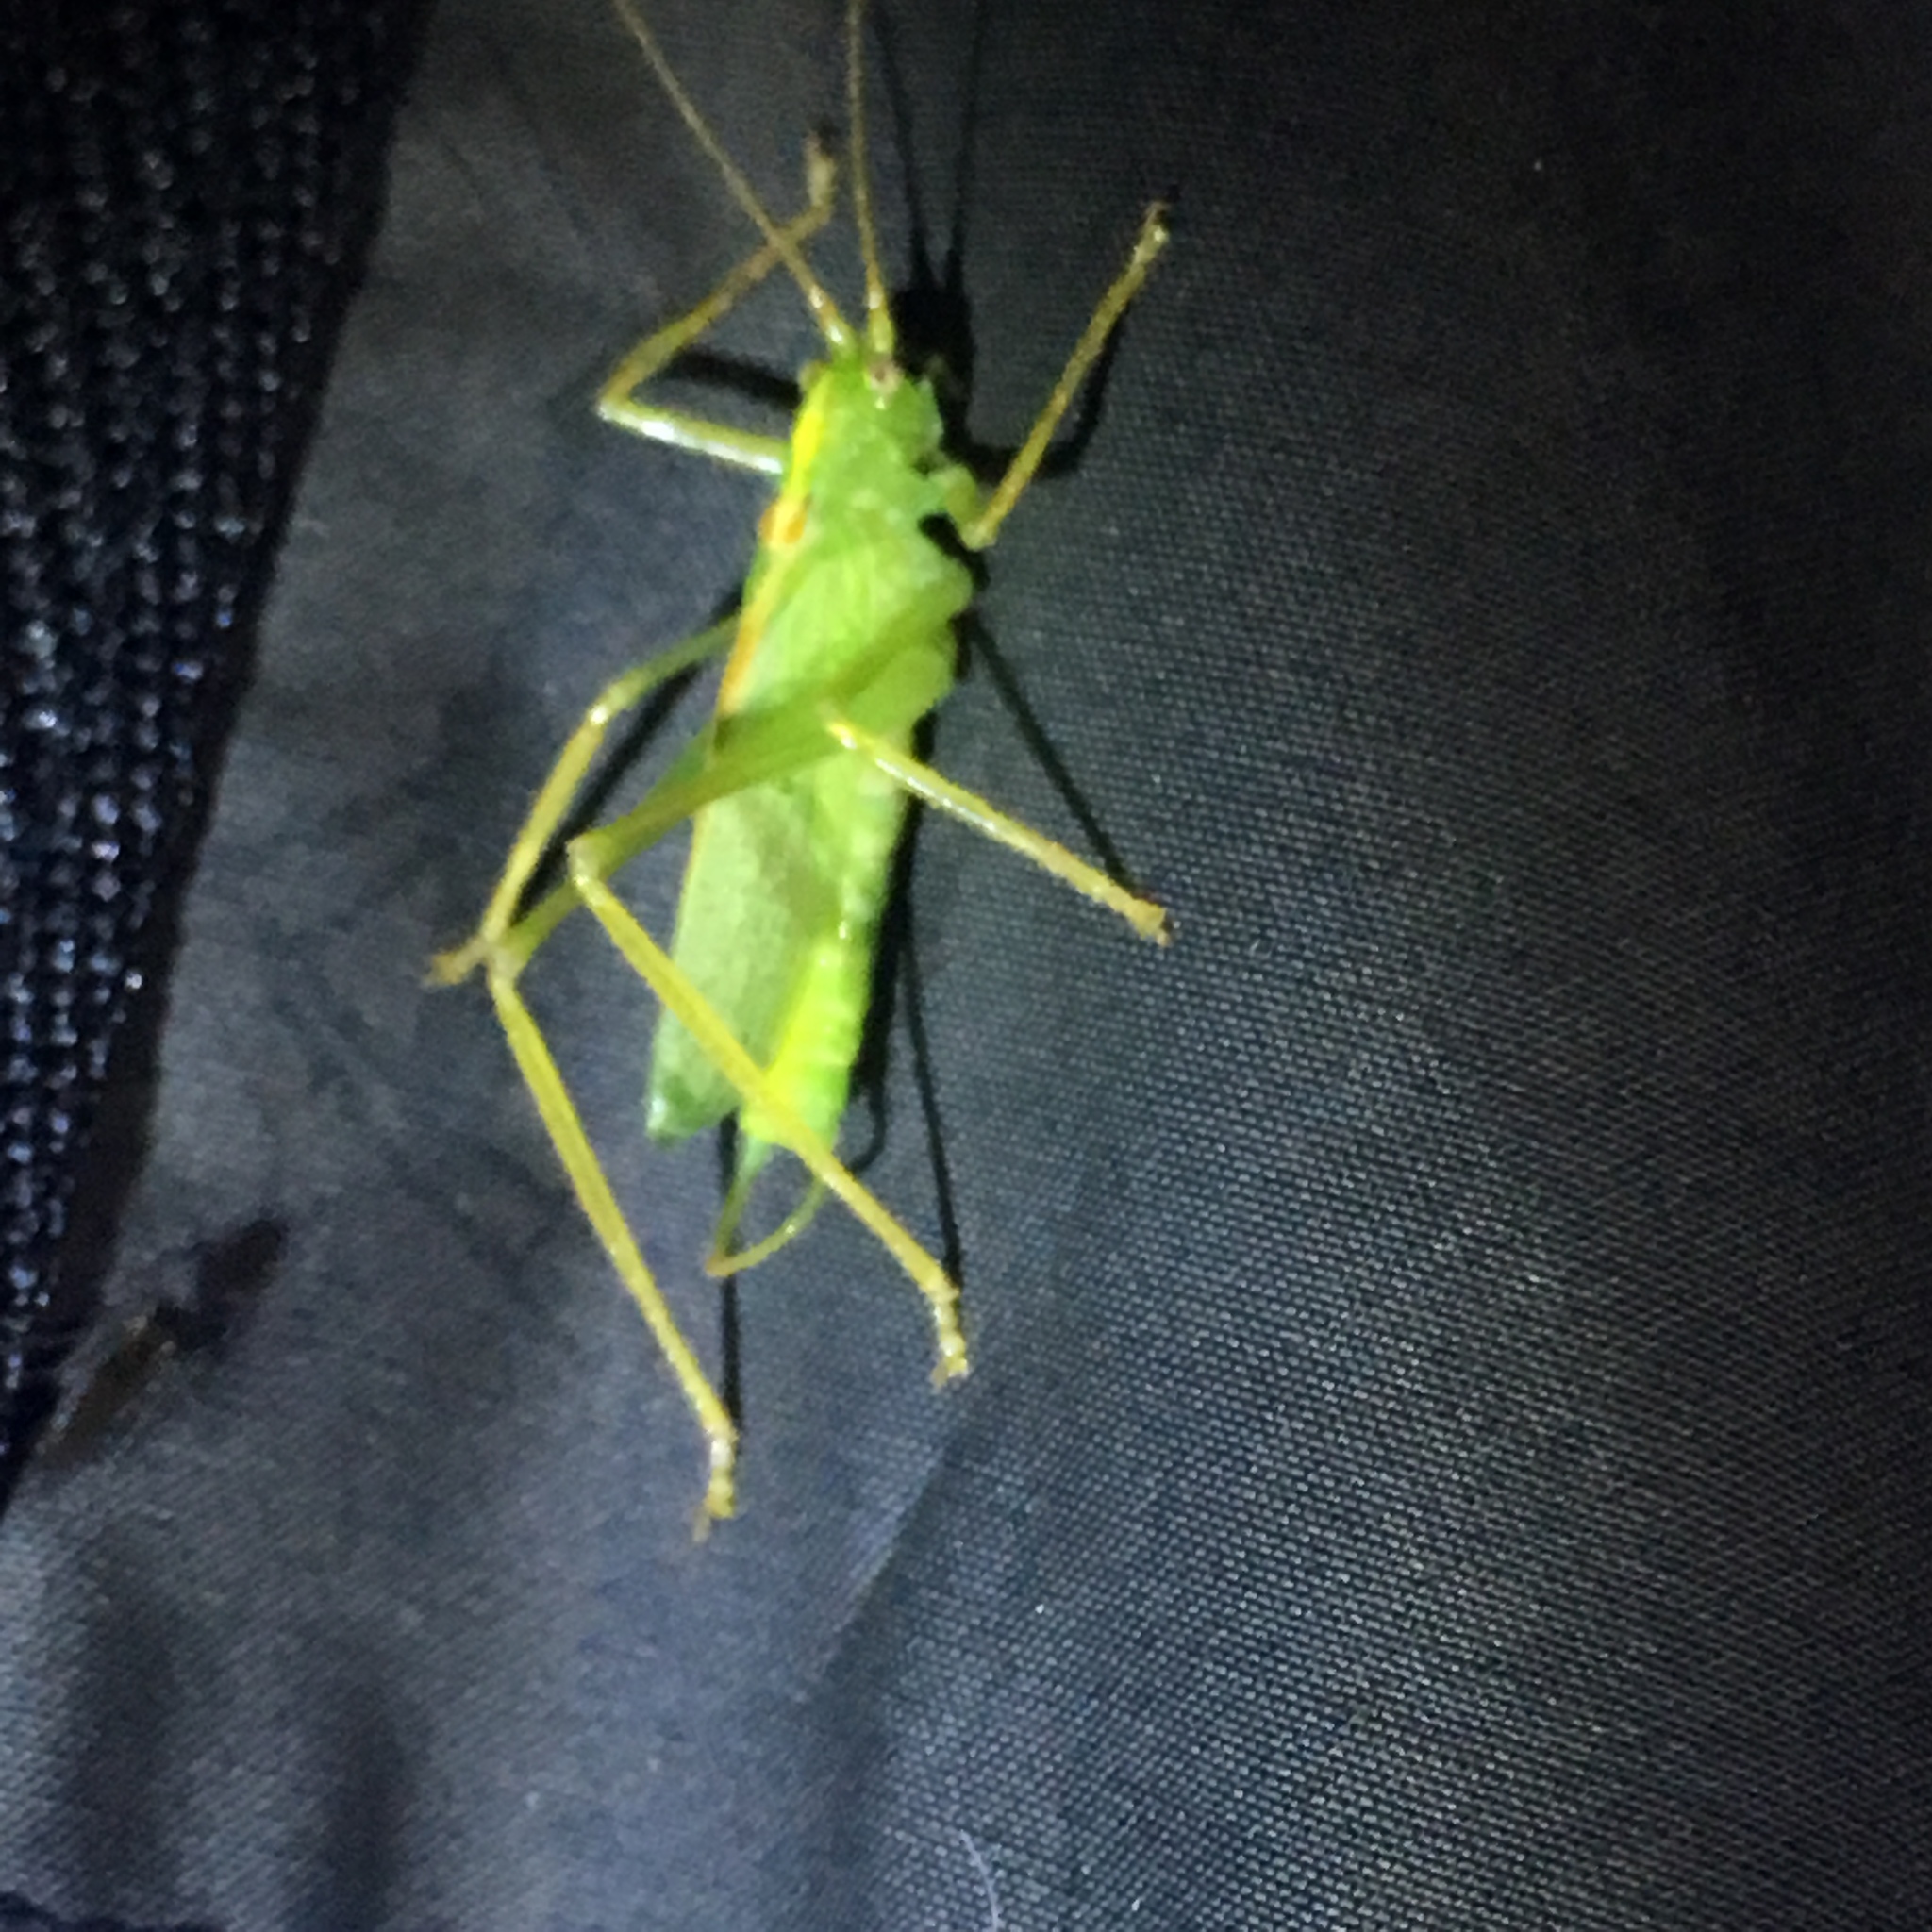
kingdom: Animalia
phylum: Arthropoda
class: Insecta
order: Orthoptera
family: Tettigoniidae
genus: Meconema
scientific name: Meconema thalassinum
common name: Oak bush-cricket
